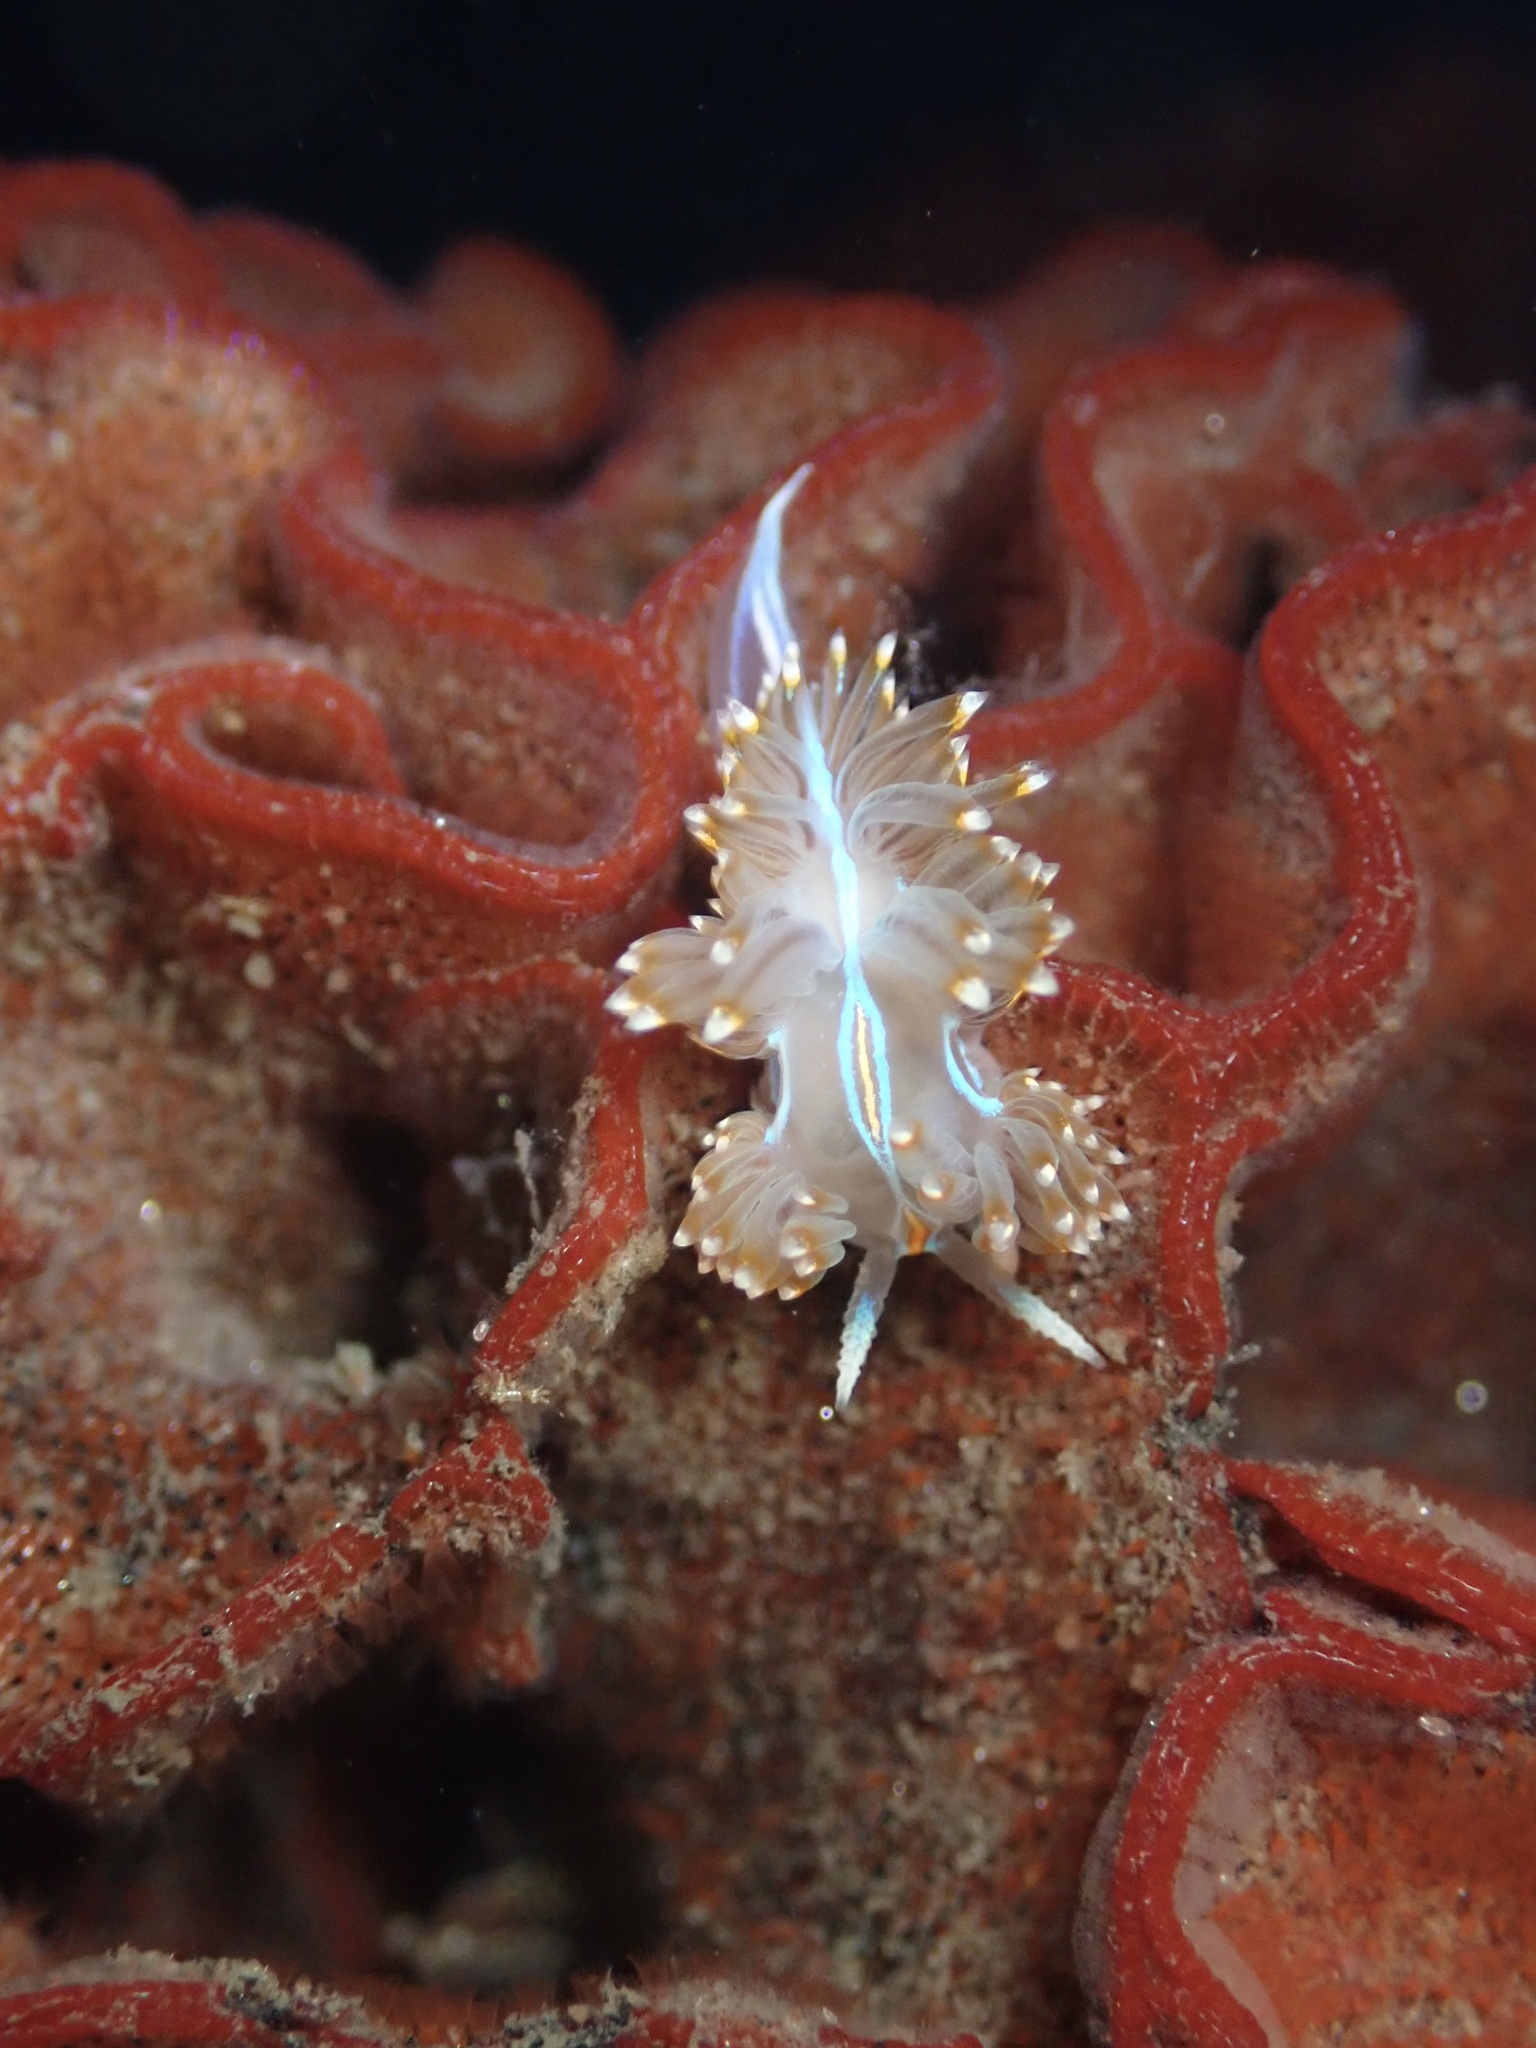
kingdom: Animalia
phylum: Mollusca
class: Gastropoda
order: Nudibranchia
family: Myrrhinidae
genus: Hermissenda
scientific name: Hermissenda opalescens
